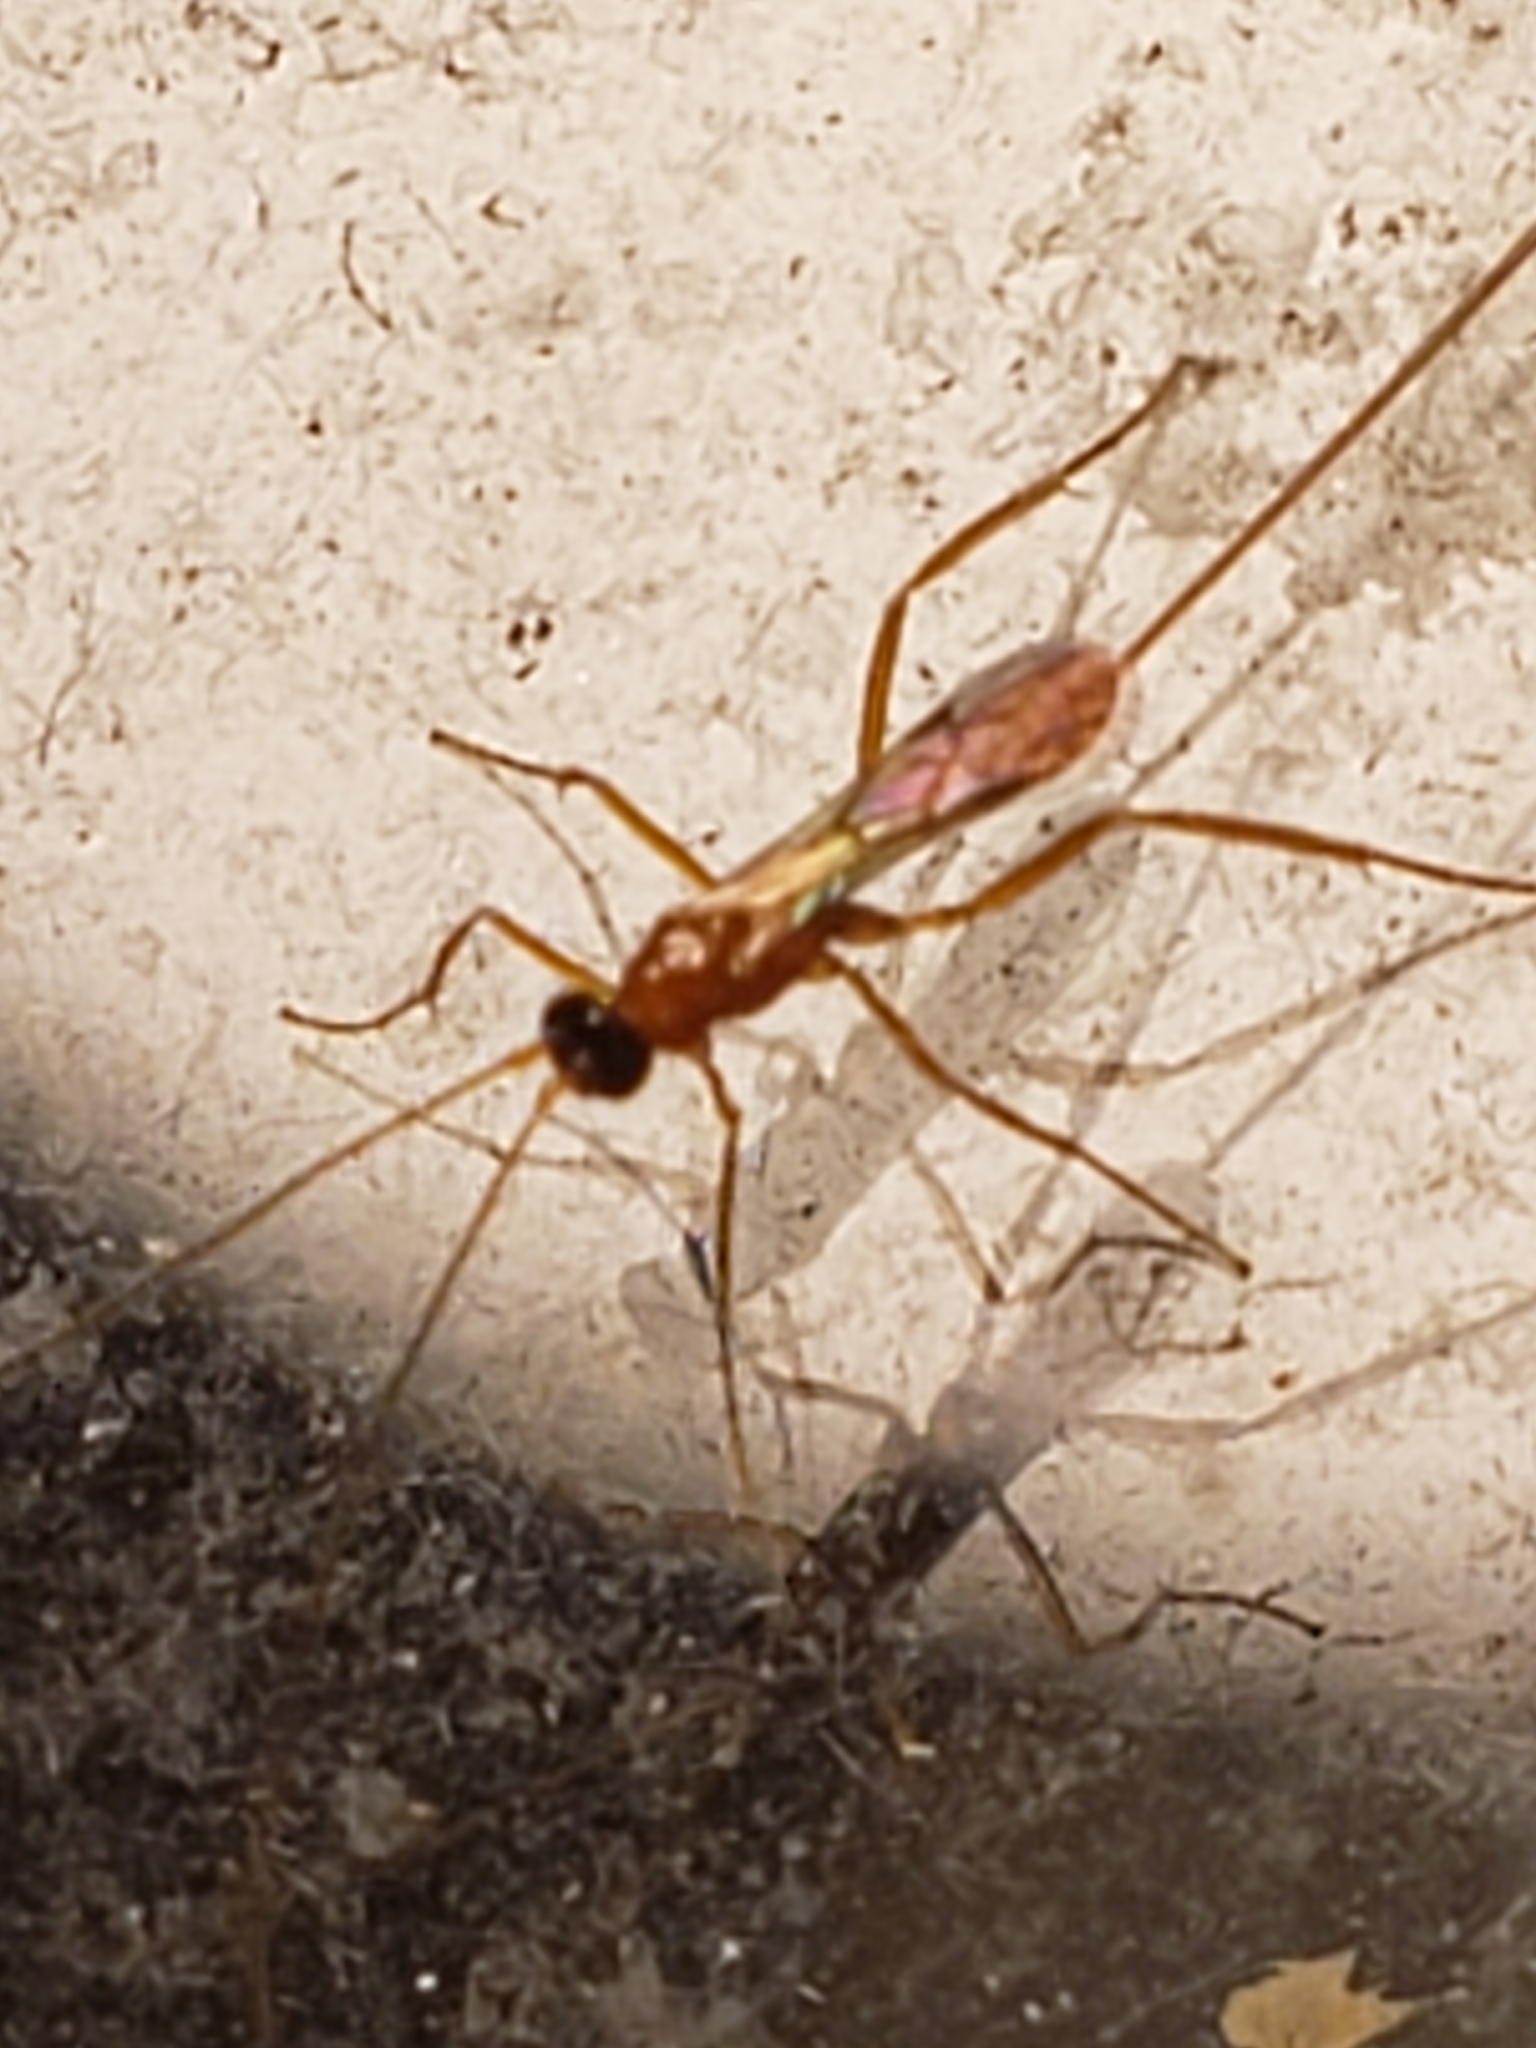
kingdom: Animalia
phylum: Arthropoda
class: Insecta
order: Hymenoptera
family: Braconidae
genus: Macrocentrus
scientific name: Macrocentrus
